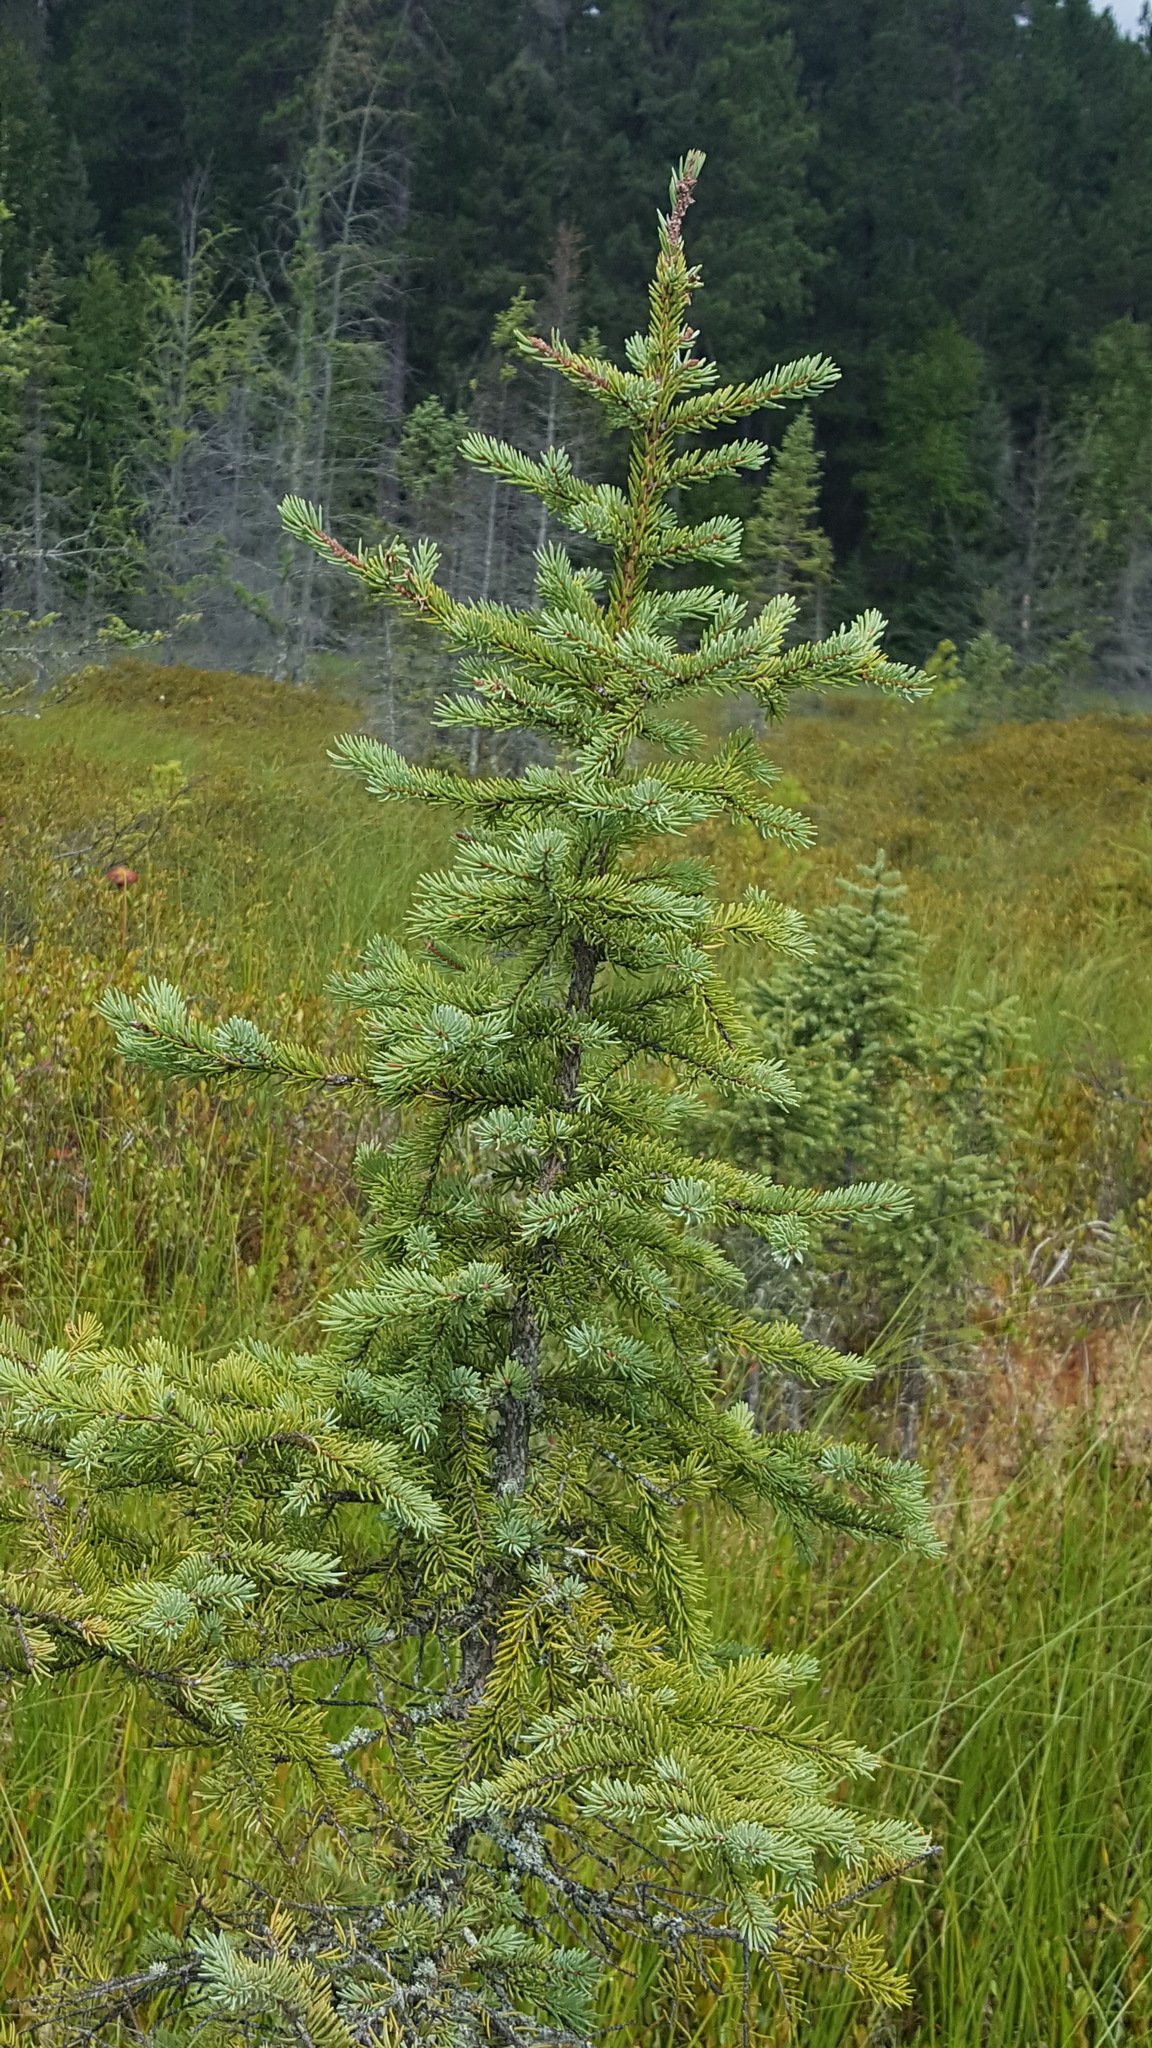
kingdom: Plantae
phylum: Tracheophyta
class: Pinopsida
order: Pinales
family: Pinaceae
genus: Picea
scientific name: Picea mariana
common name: Black spruce
